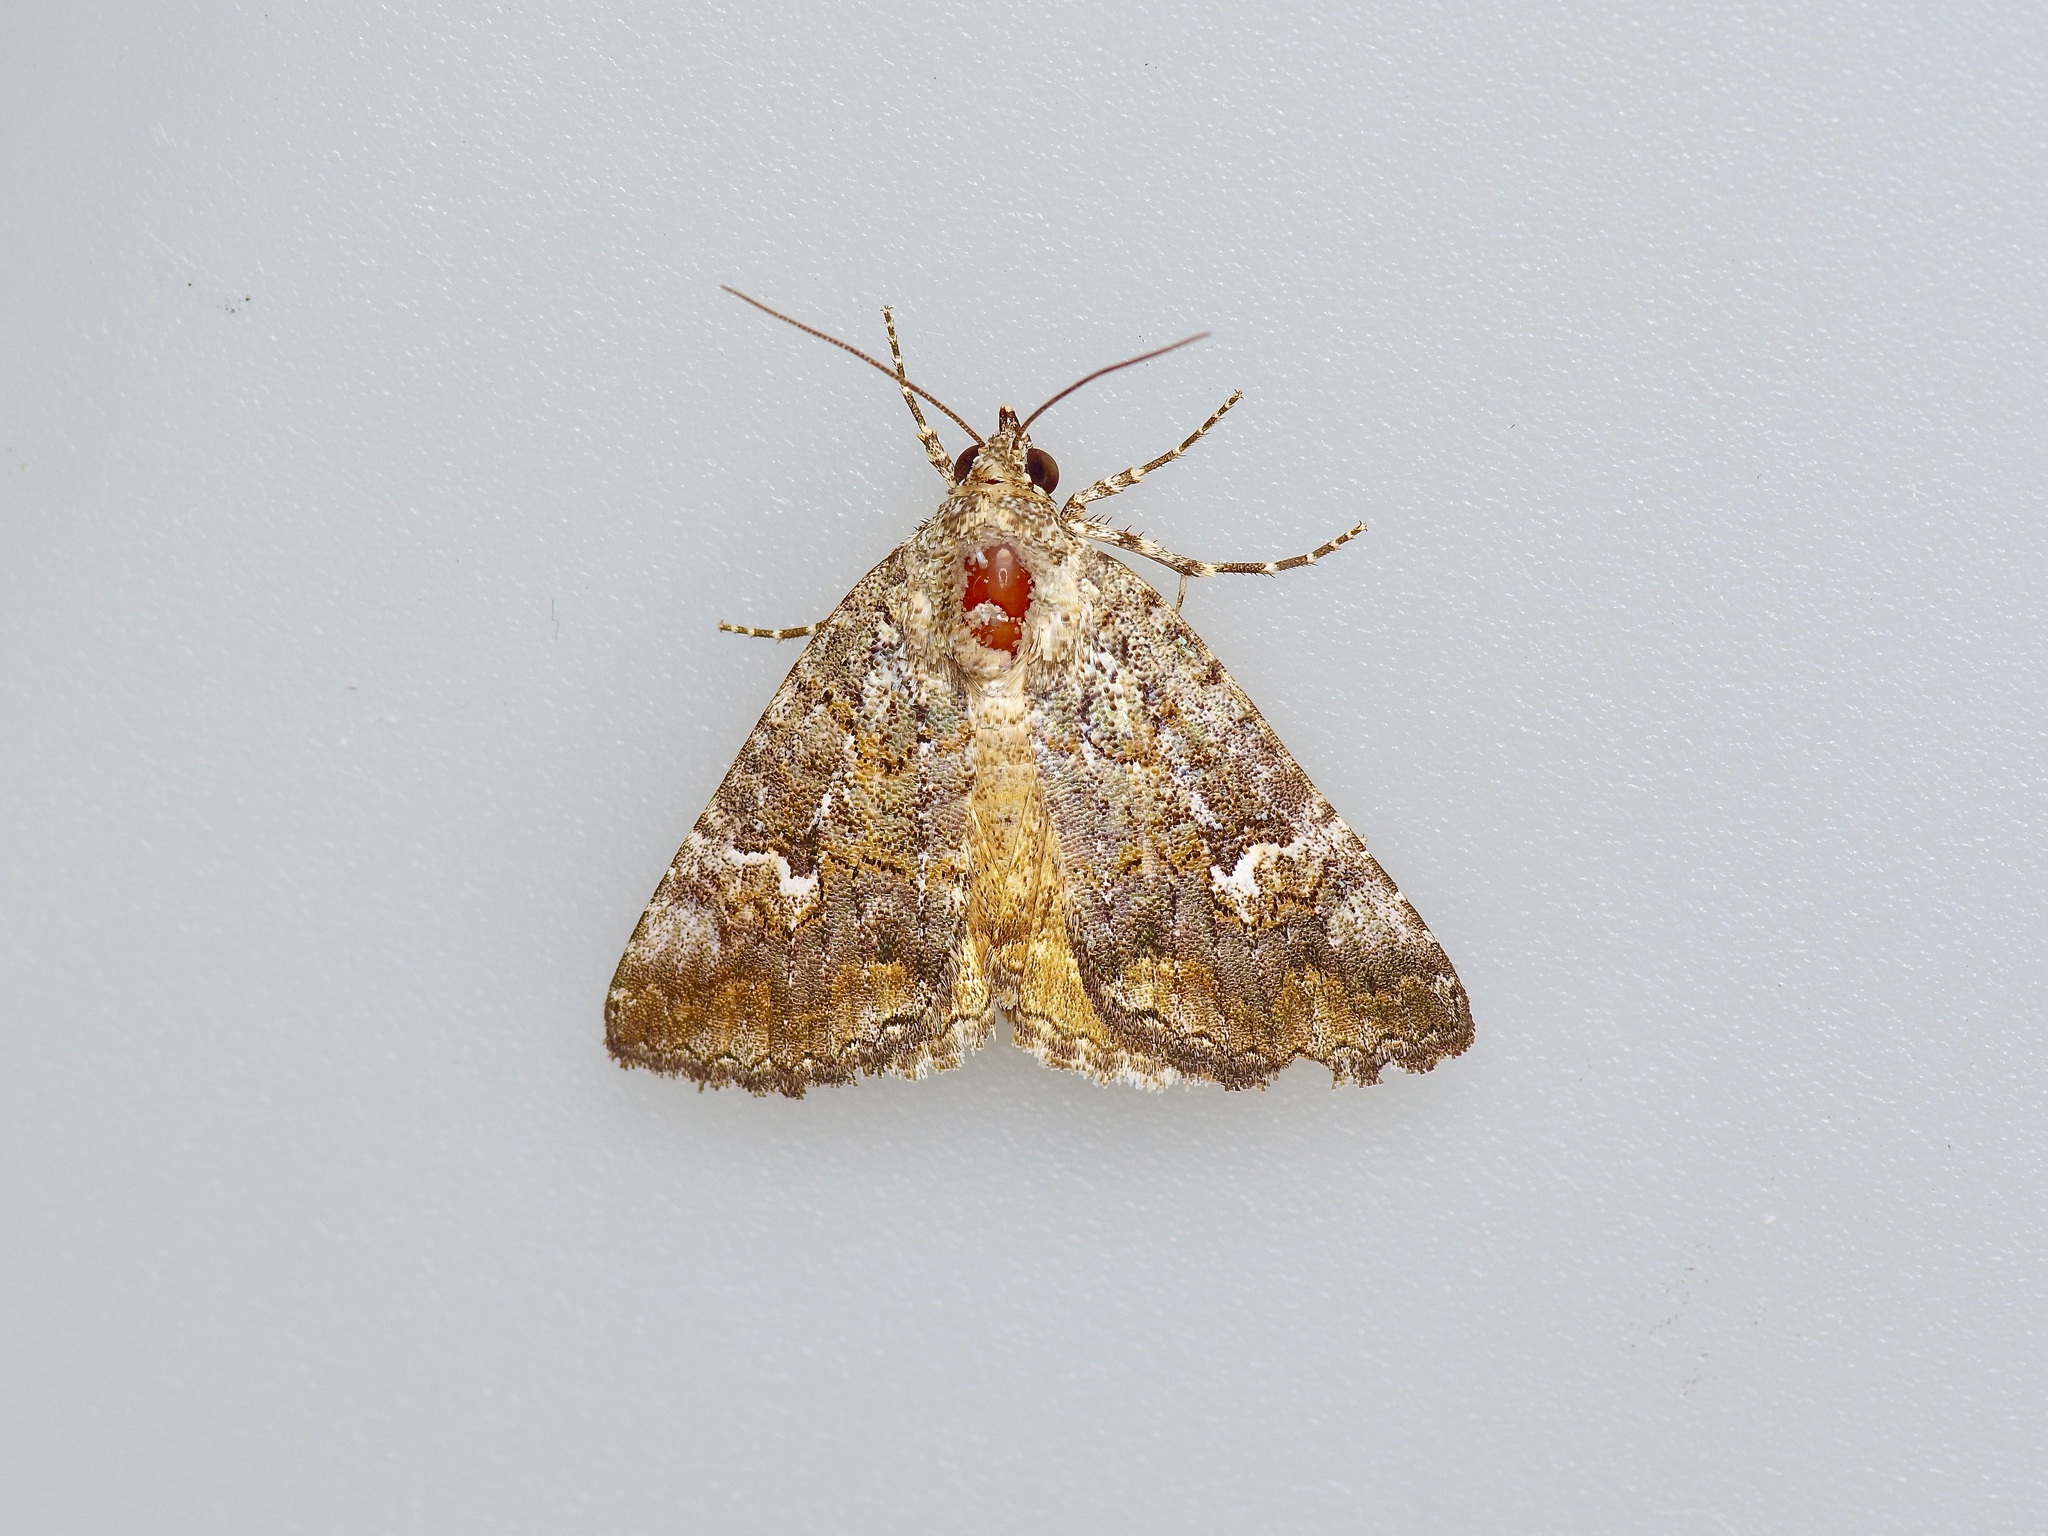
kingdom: Animalia
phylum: Arthropoda
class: Insecta
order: Lepidoptera
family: Erebidae
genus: Eubolina
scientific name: Eubolina impartialis
